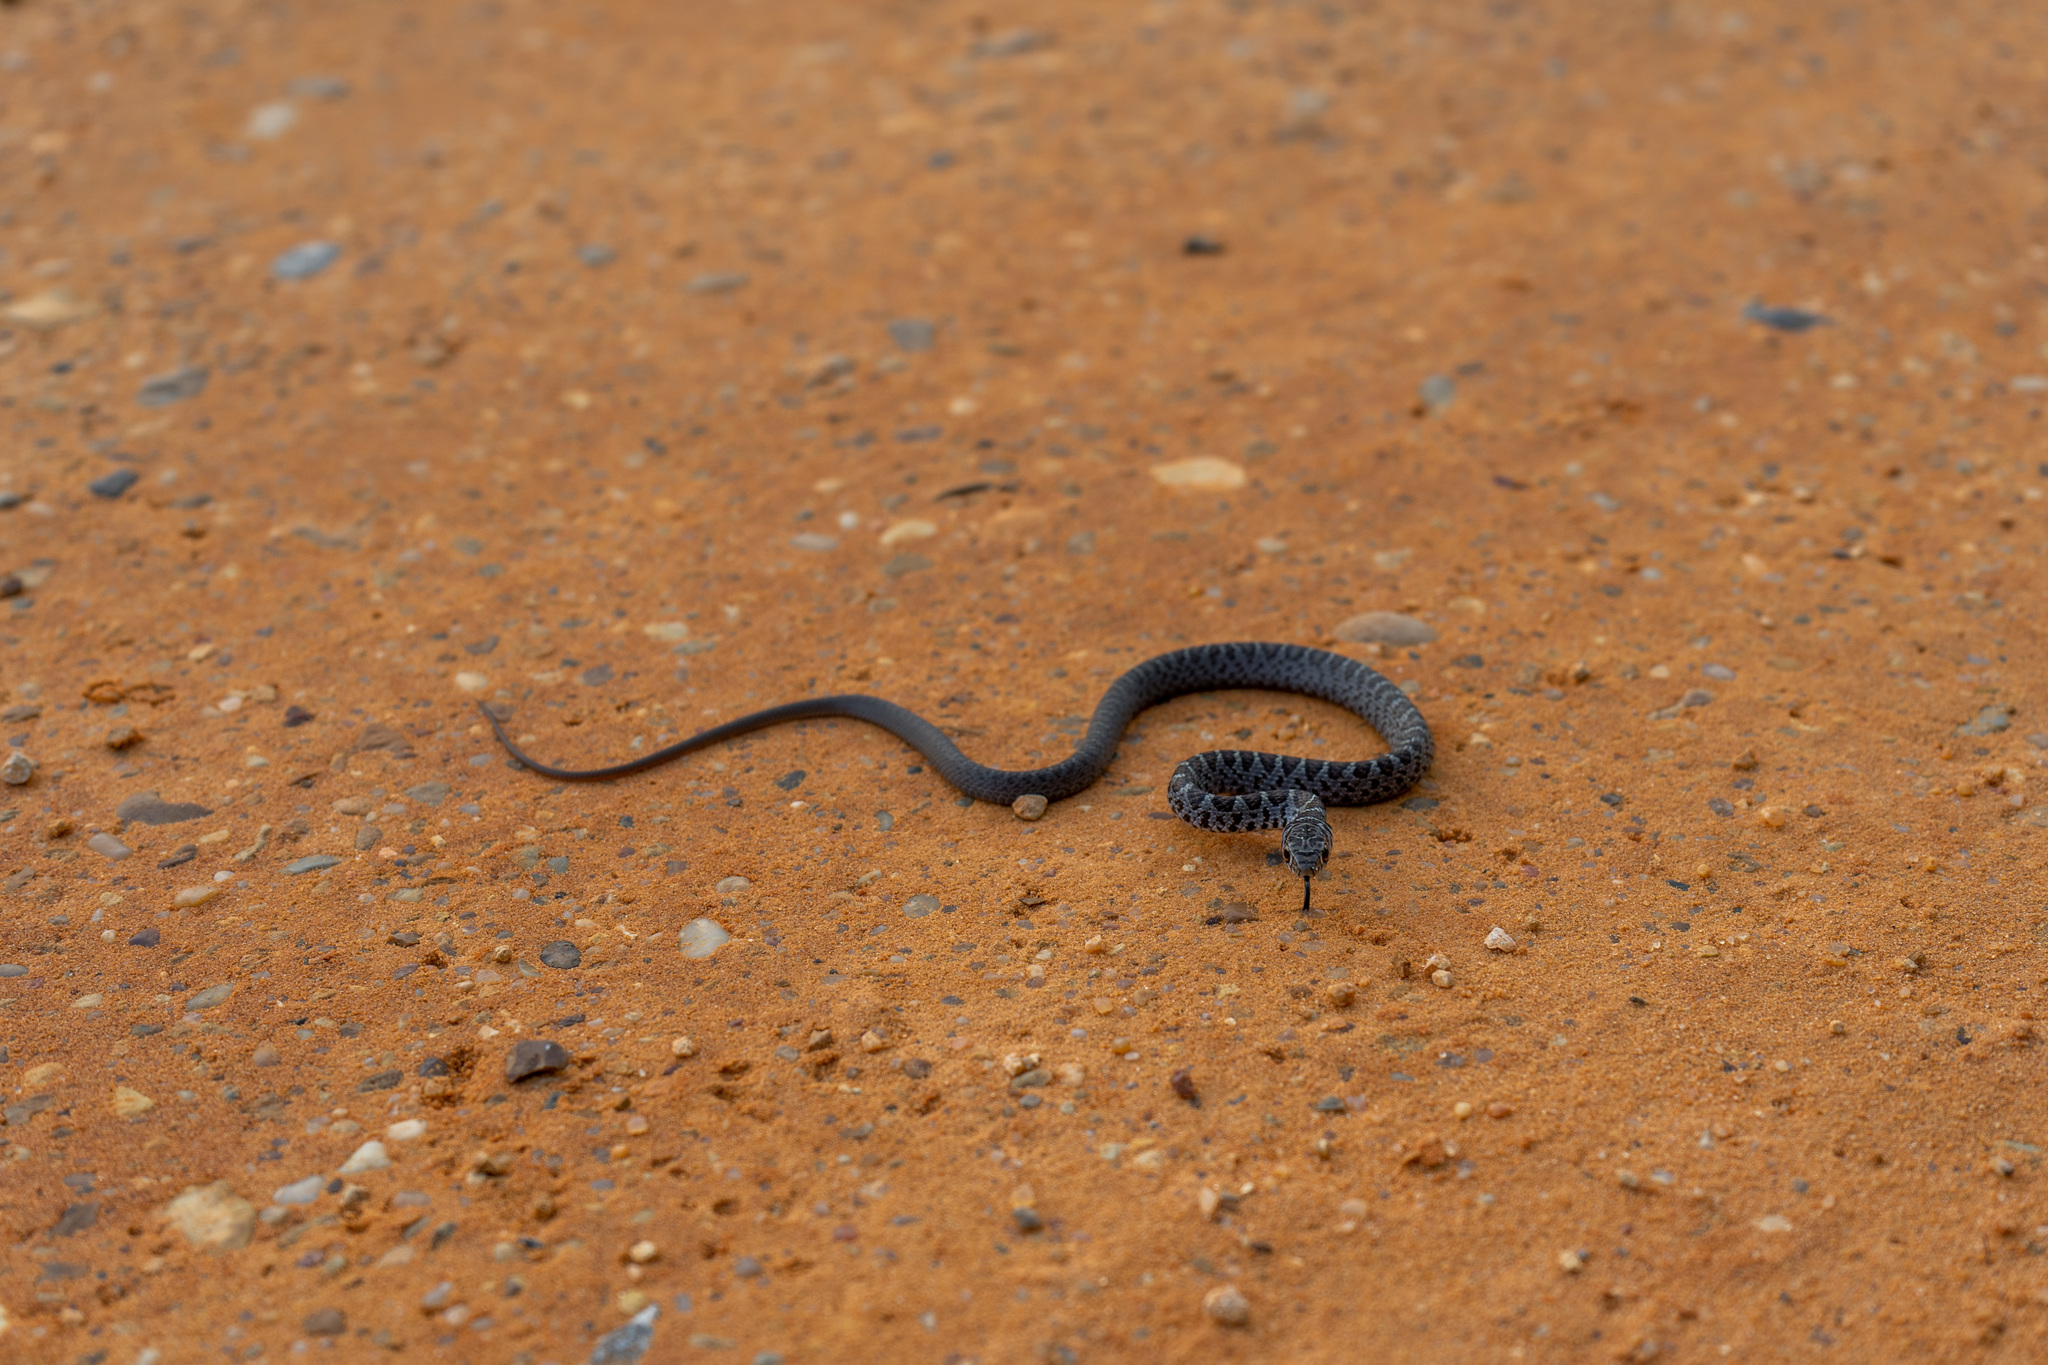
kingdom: Animalia
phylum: Chordata
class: Squamata
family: Colubridae
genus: Coluber
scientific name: Coluber constrictor
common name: Eastern racer
